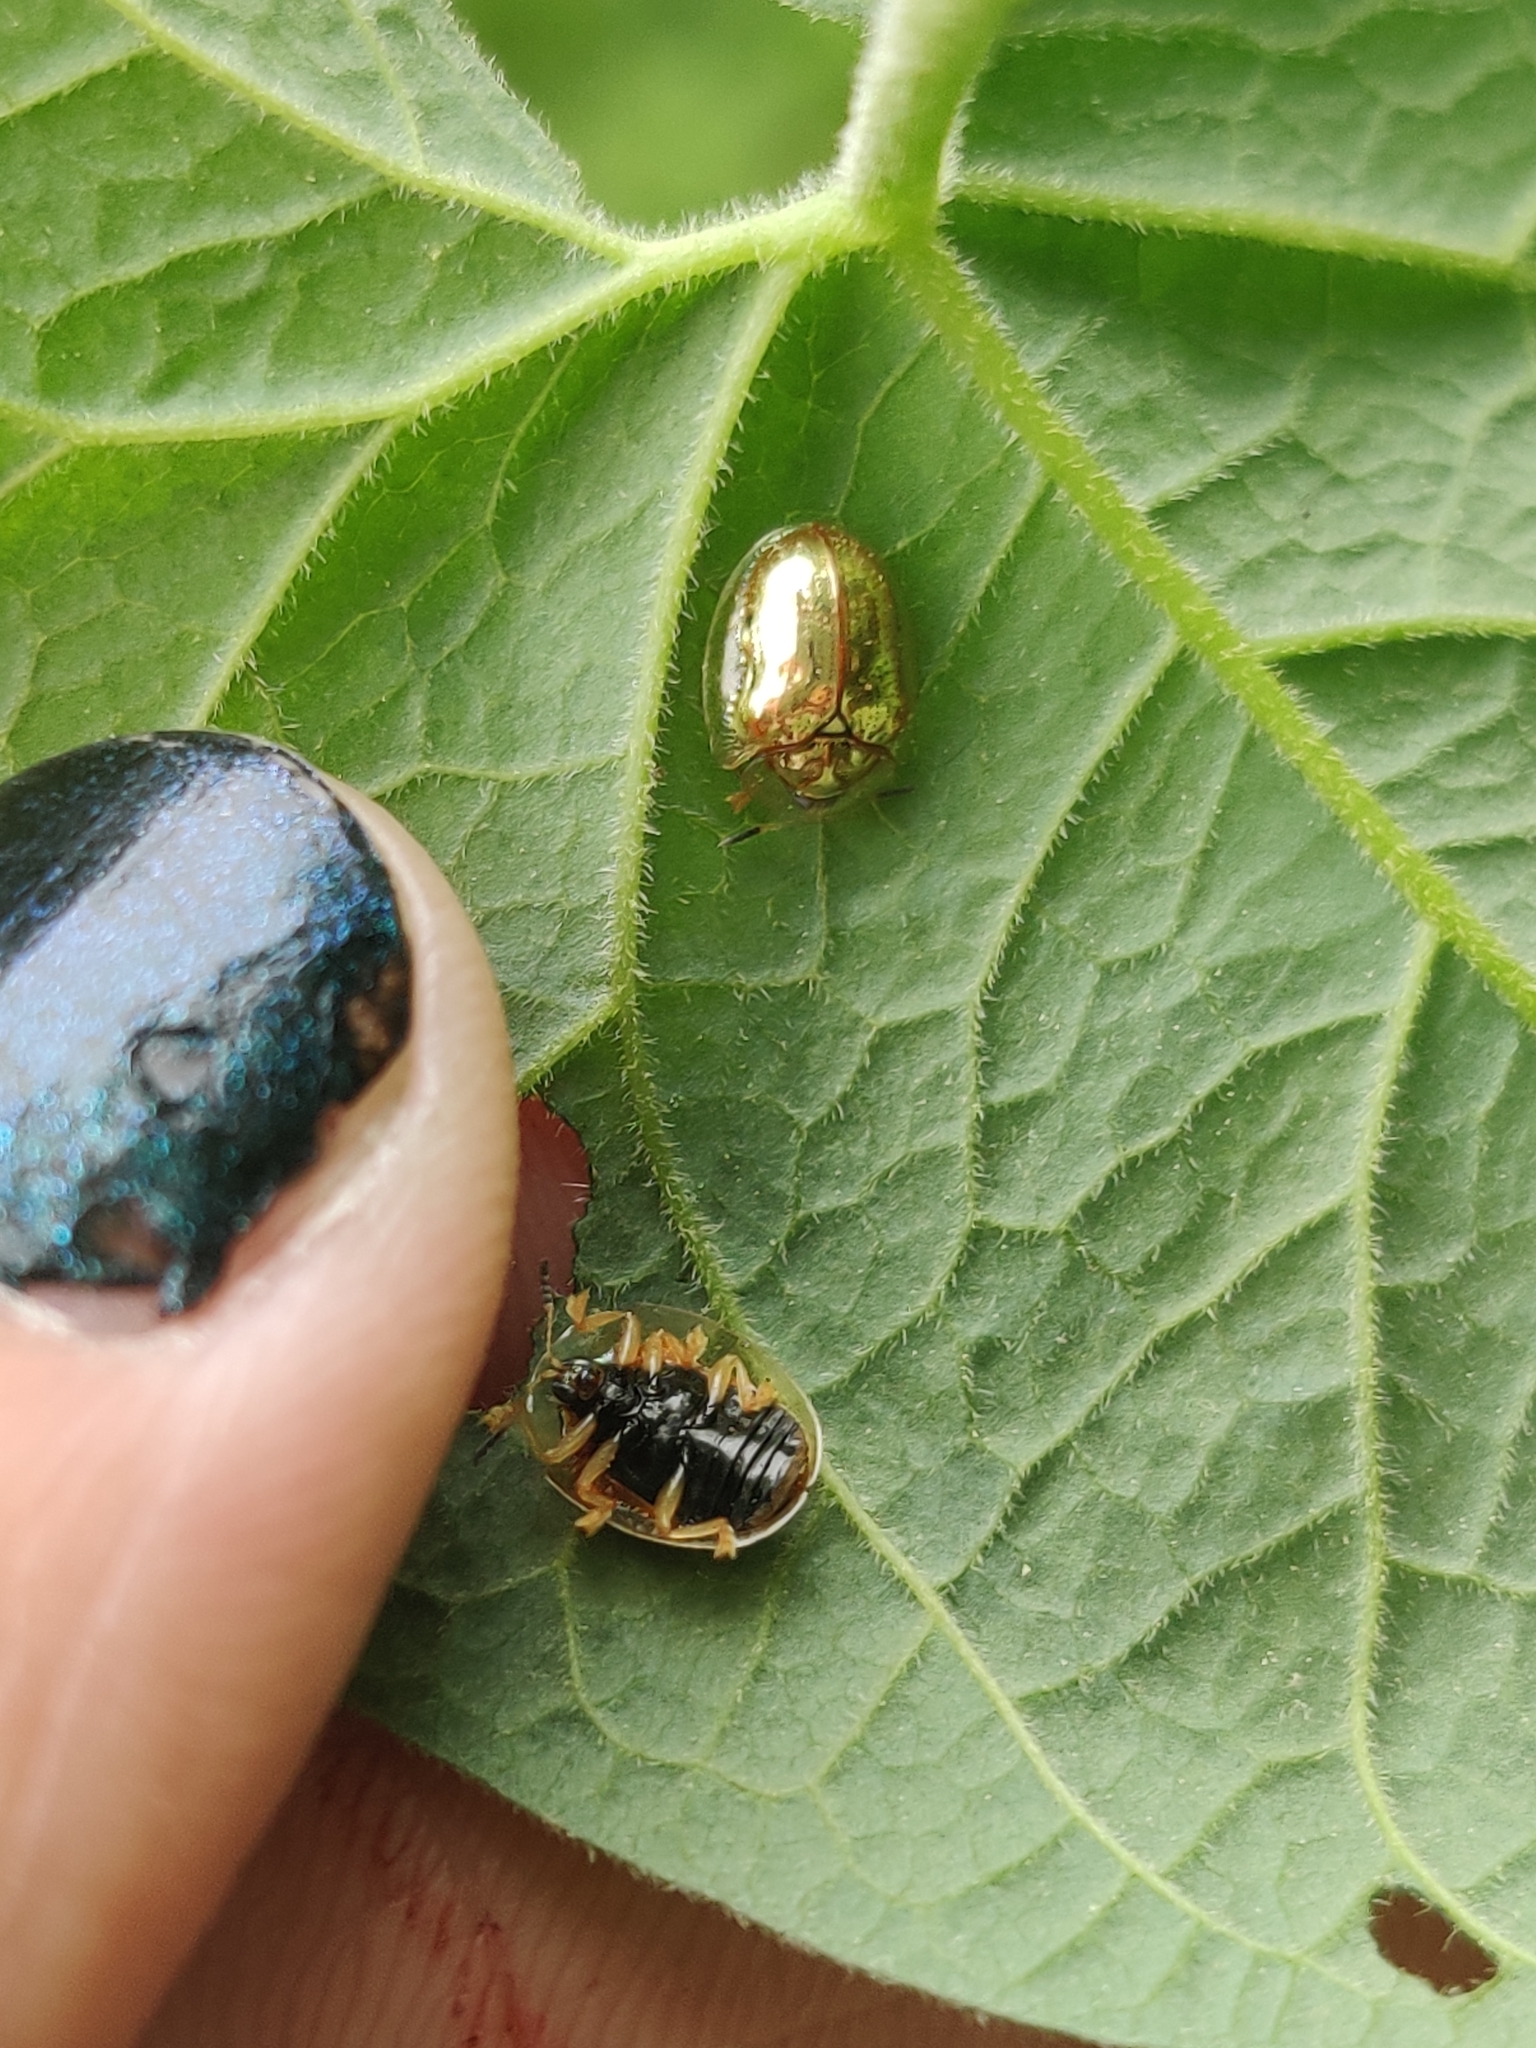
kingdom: Animalia
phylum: Arthropoda
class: Insecta
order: Coleoptera
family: Chrysomelidae
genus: Charidotella
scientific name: Charidotella sexpunctata
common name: Golden tortoise beetle
